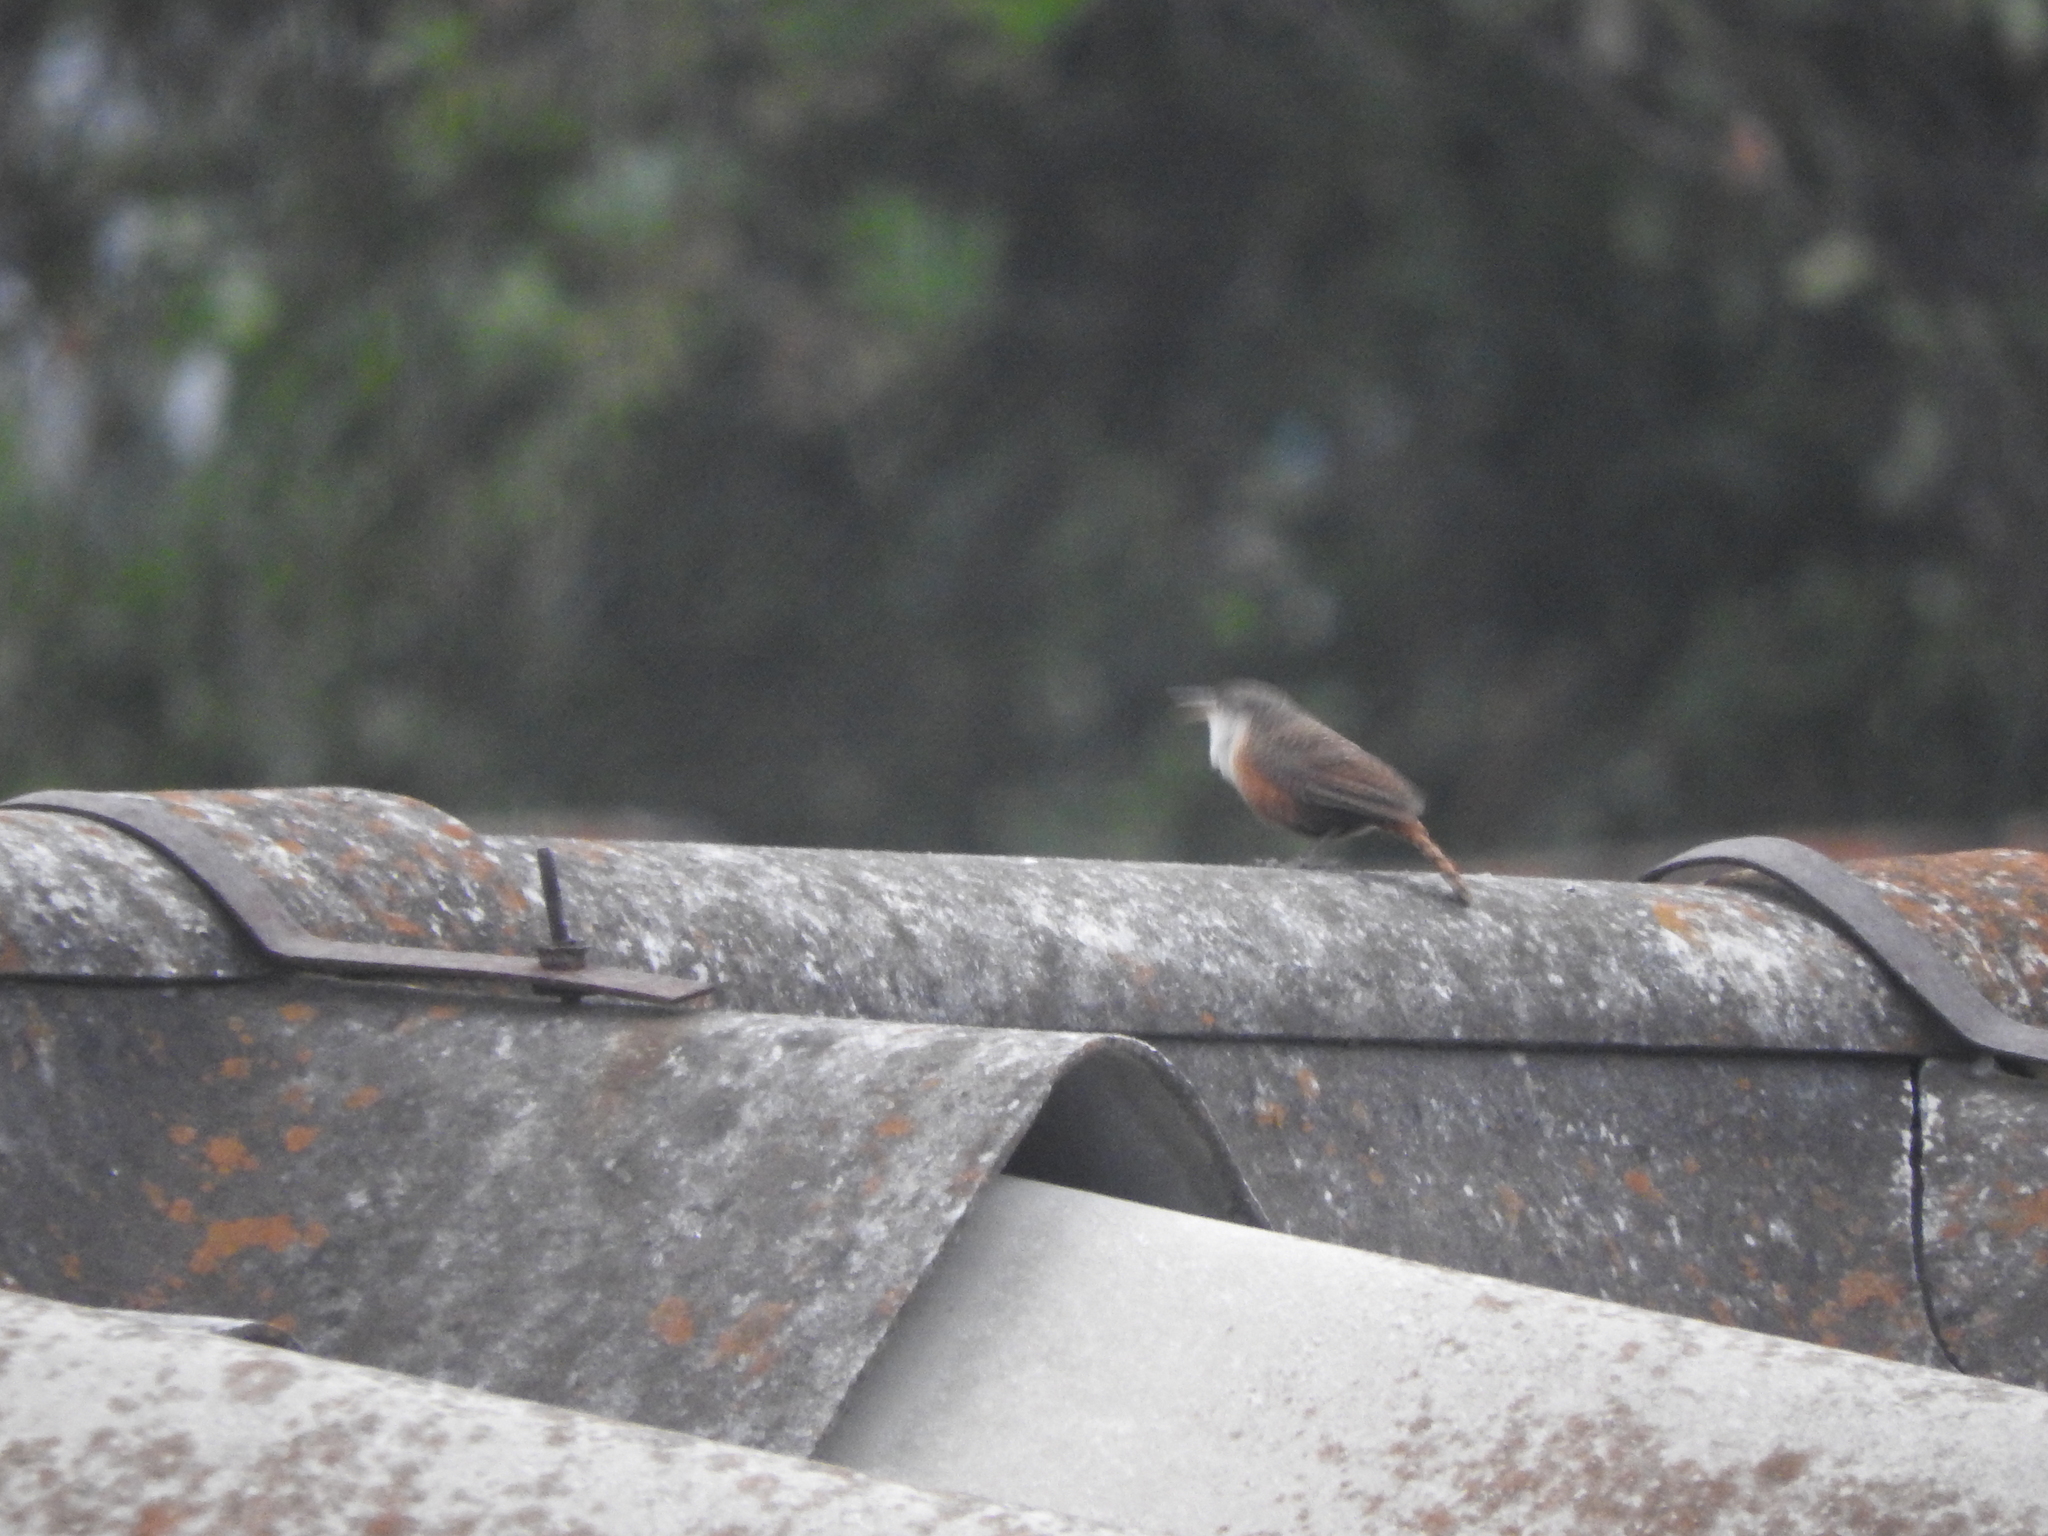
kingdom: Animalia
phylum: Chordata
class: Aves
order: Passeriformes
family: Troglodytidae
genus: Catherpes
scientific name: Catherpes mexicanus
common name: Canyon wren
